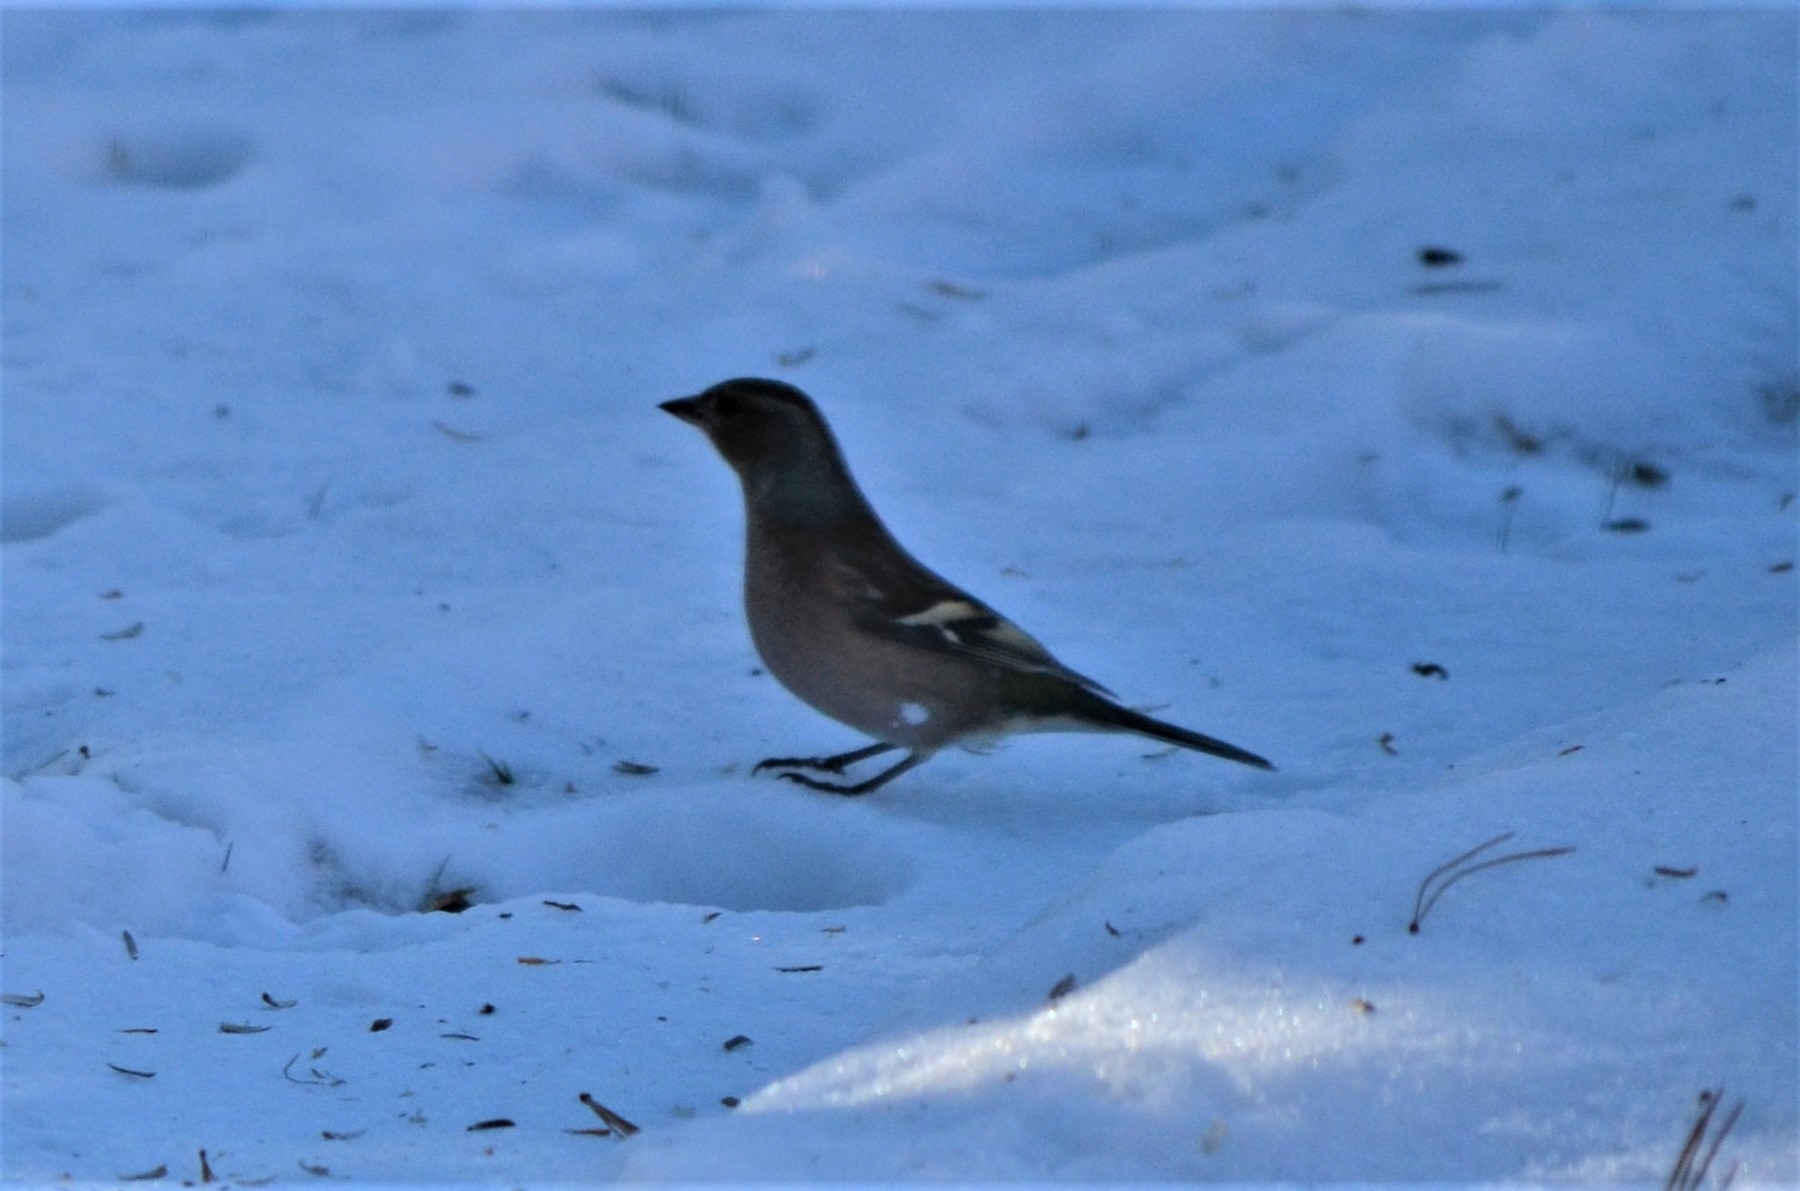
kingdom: Animalia
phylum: Chordata
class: Aves
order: Passeriformes
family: Fringillidae
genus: Fringilla
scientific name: Fringilla coelebs
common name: Common chaffinch
